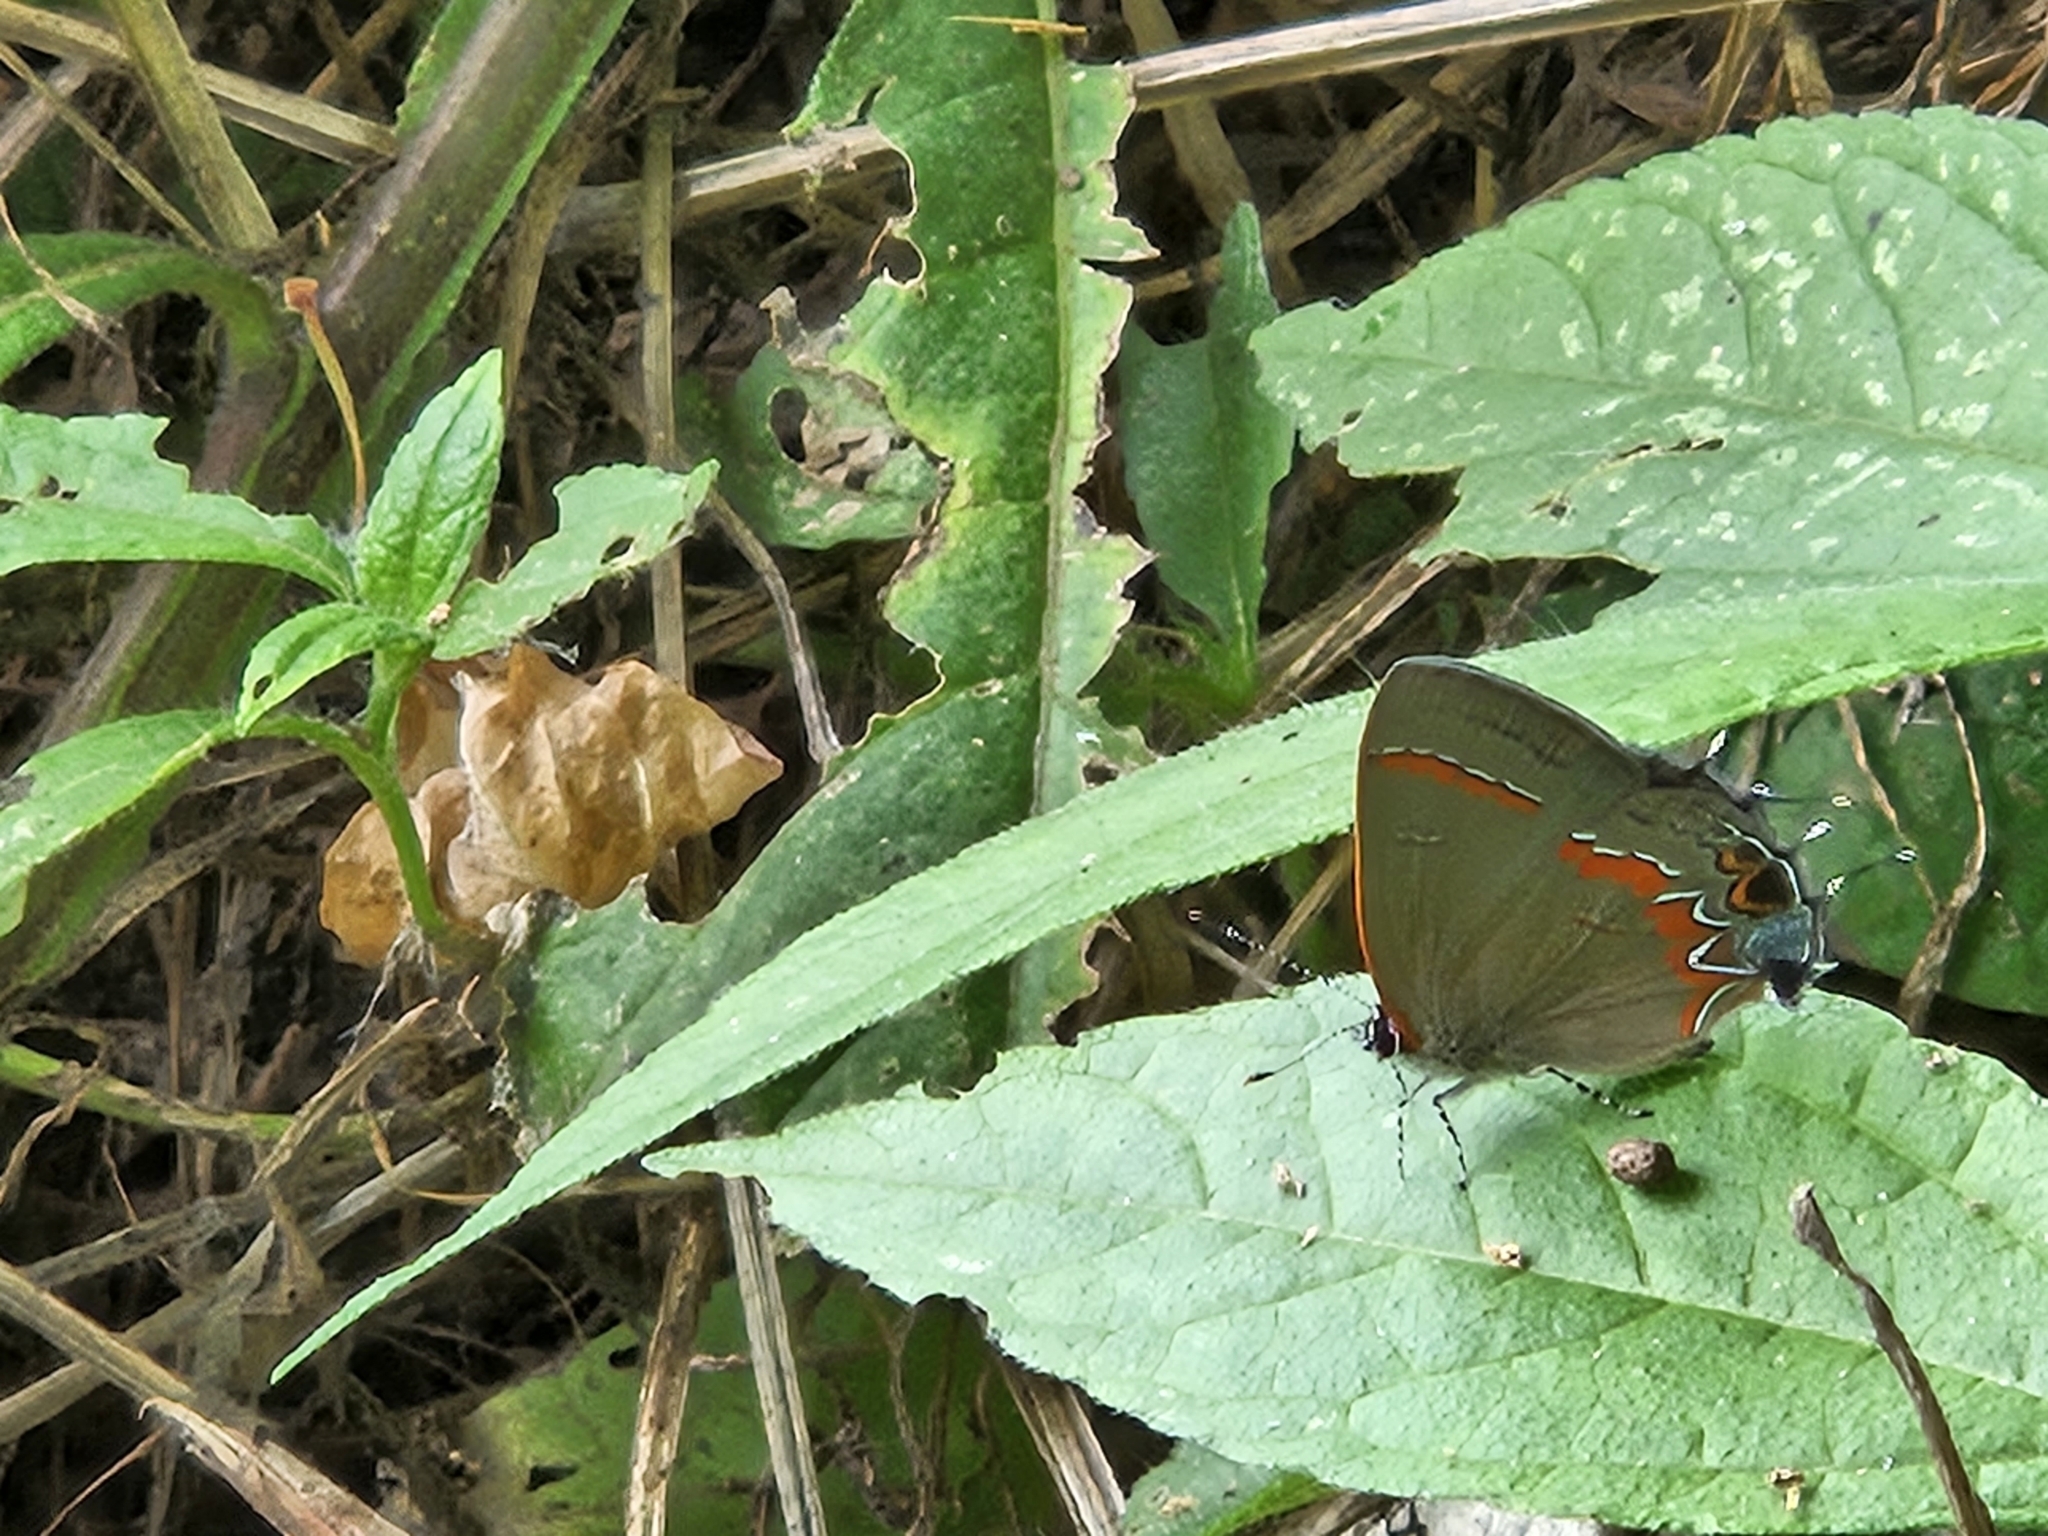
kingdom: Animalia
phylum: Arthropoda
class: Insecta
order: Lepidoptera
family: Lycaenidae
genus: Calycopis
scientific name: Calycopis cecrops
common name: Red-banded hairstreak
